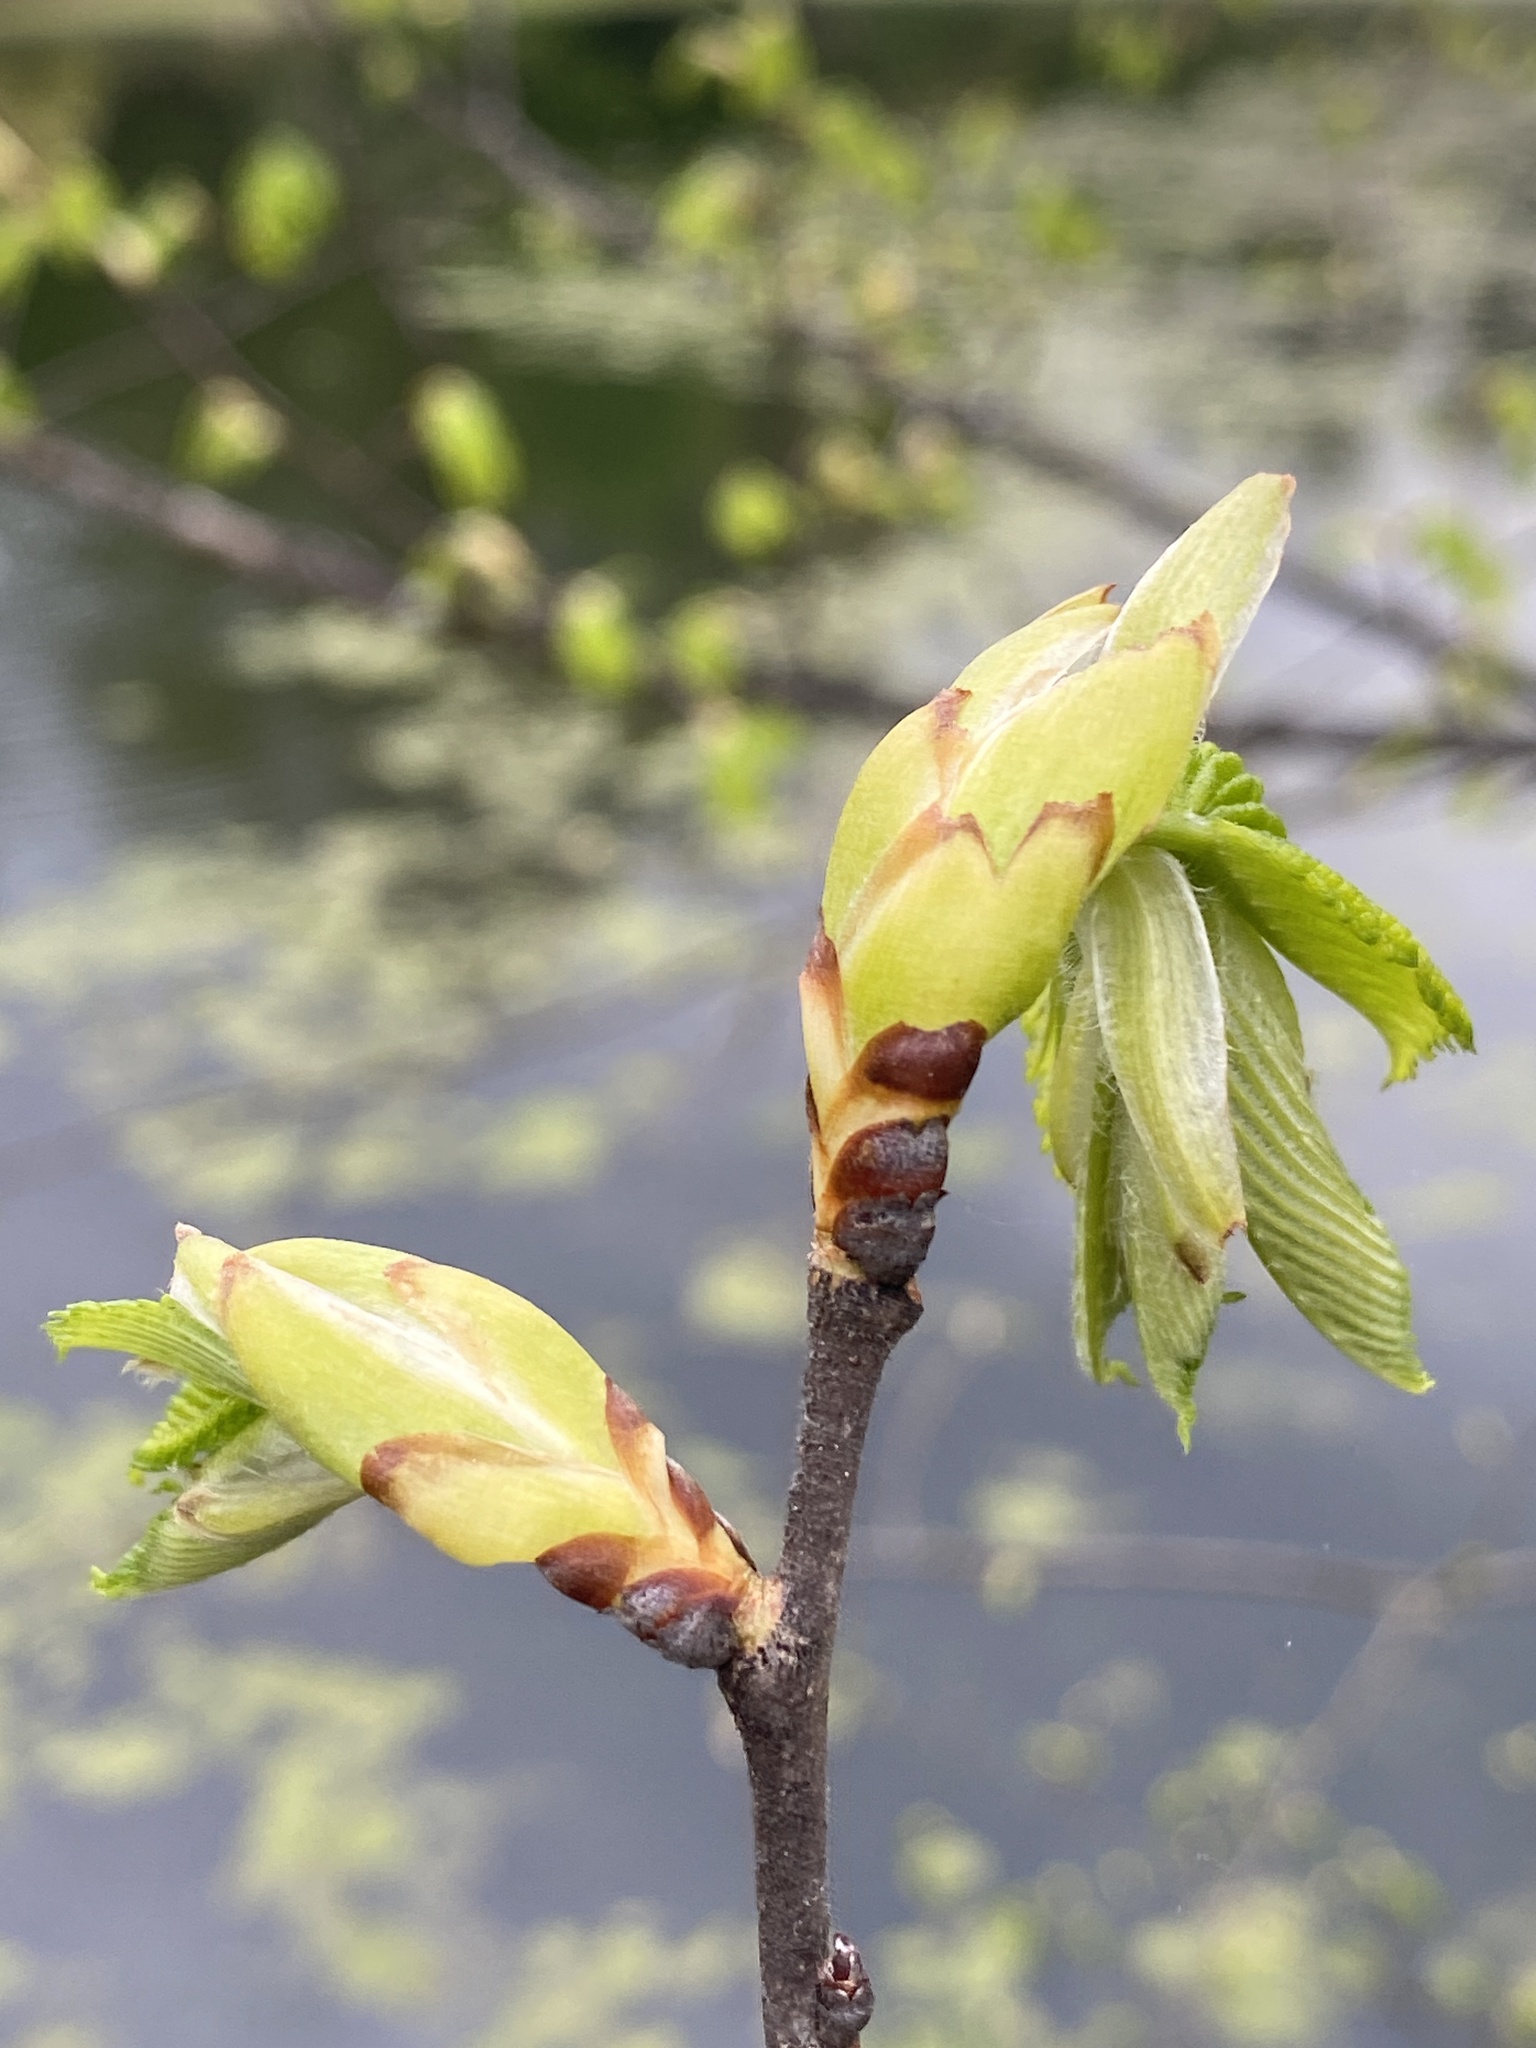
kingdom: Plantae
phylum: Tracheophyta
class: Magnoliopsida
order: Rosales
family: Ulmaceae
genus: Ulmus
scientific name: Ulmus americana
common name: American elm
